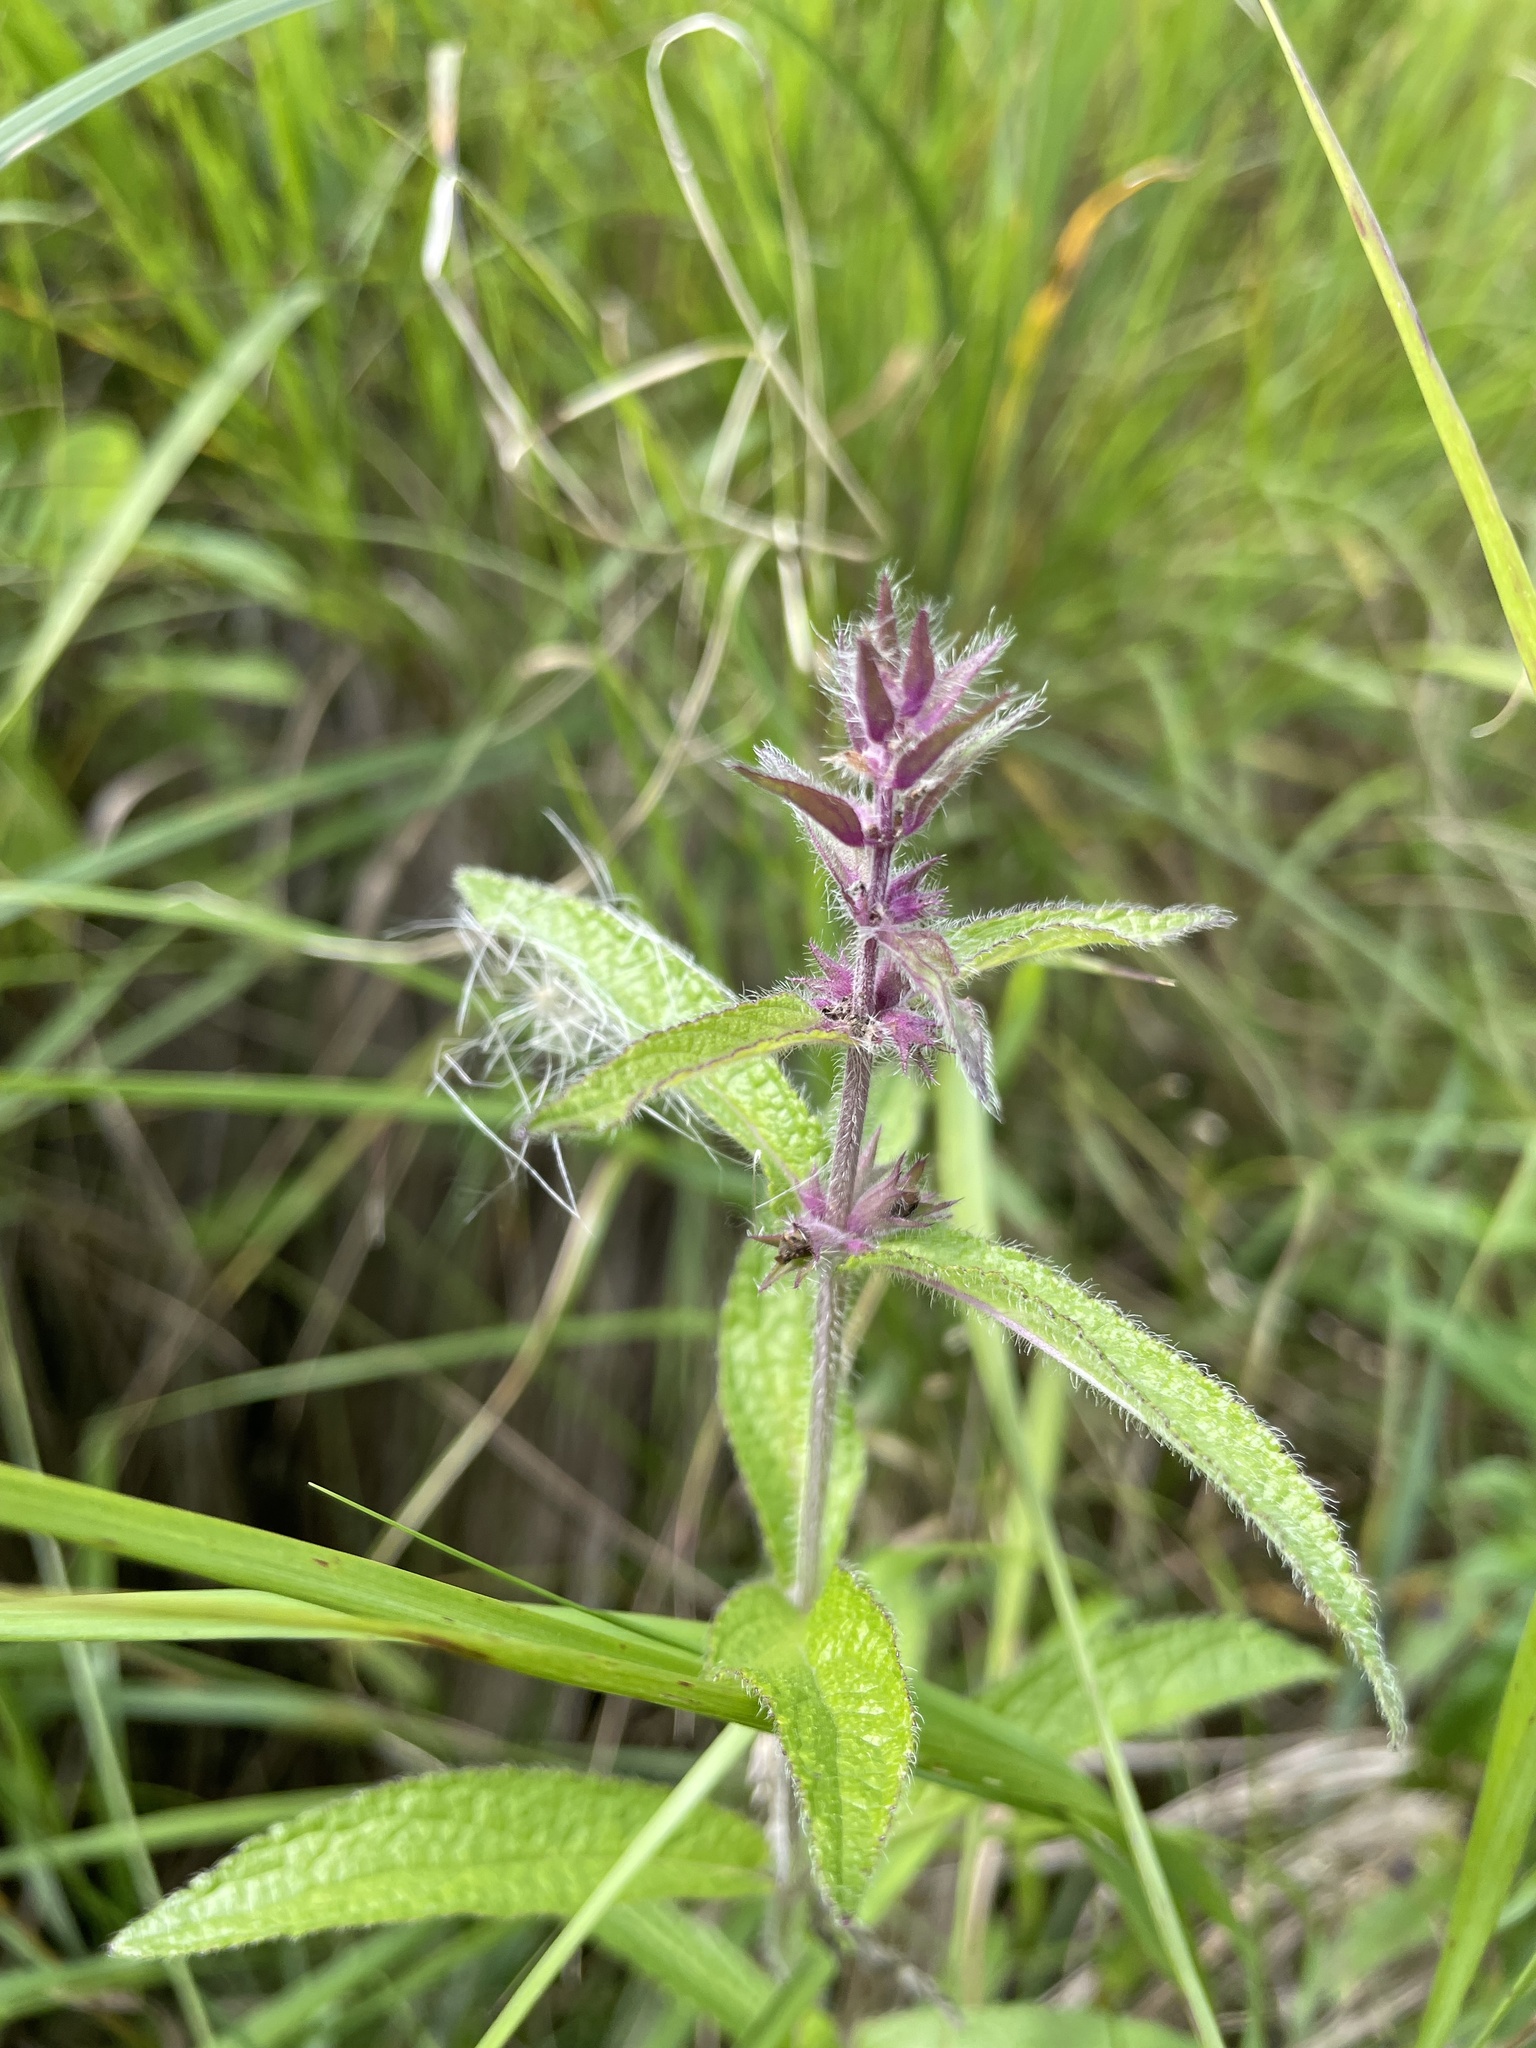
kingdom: Plantae
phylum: Tracheophyta
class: Magnoliopsida
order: Lamiales
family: Lamiaceae
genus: Stachys
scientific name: Stachys pilosa
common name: Hairy hedge-nettle
